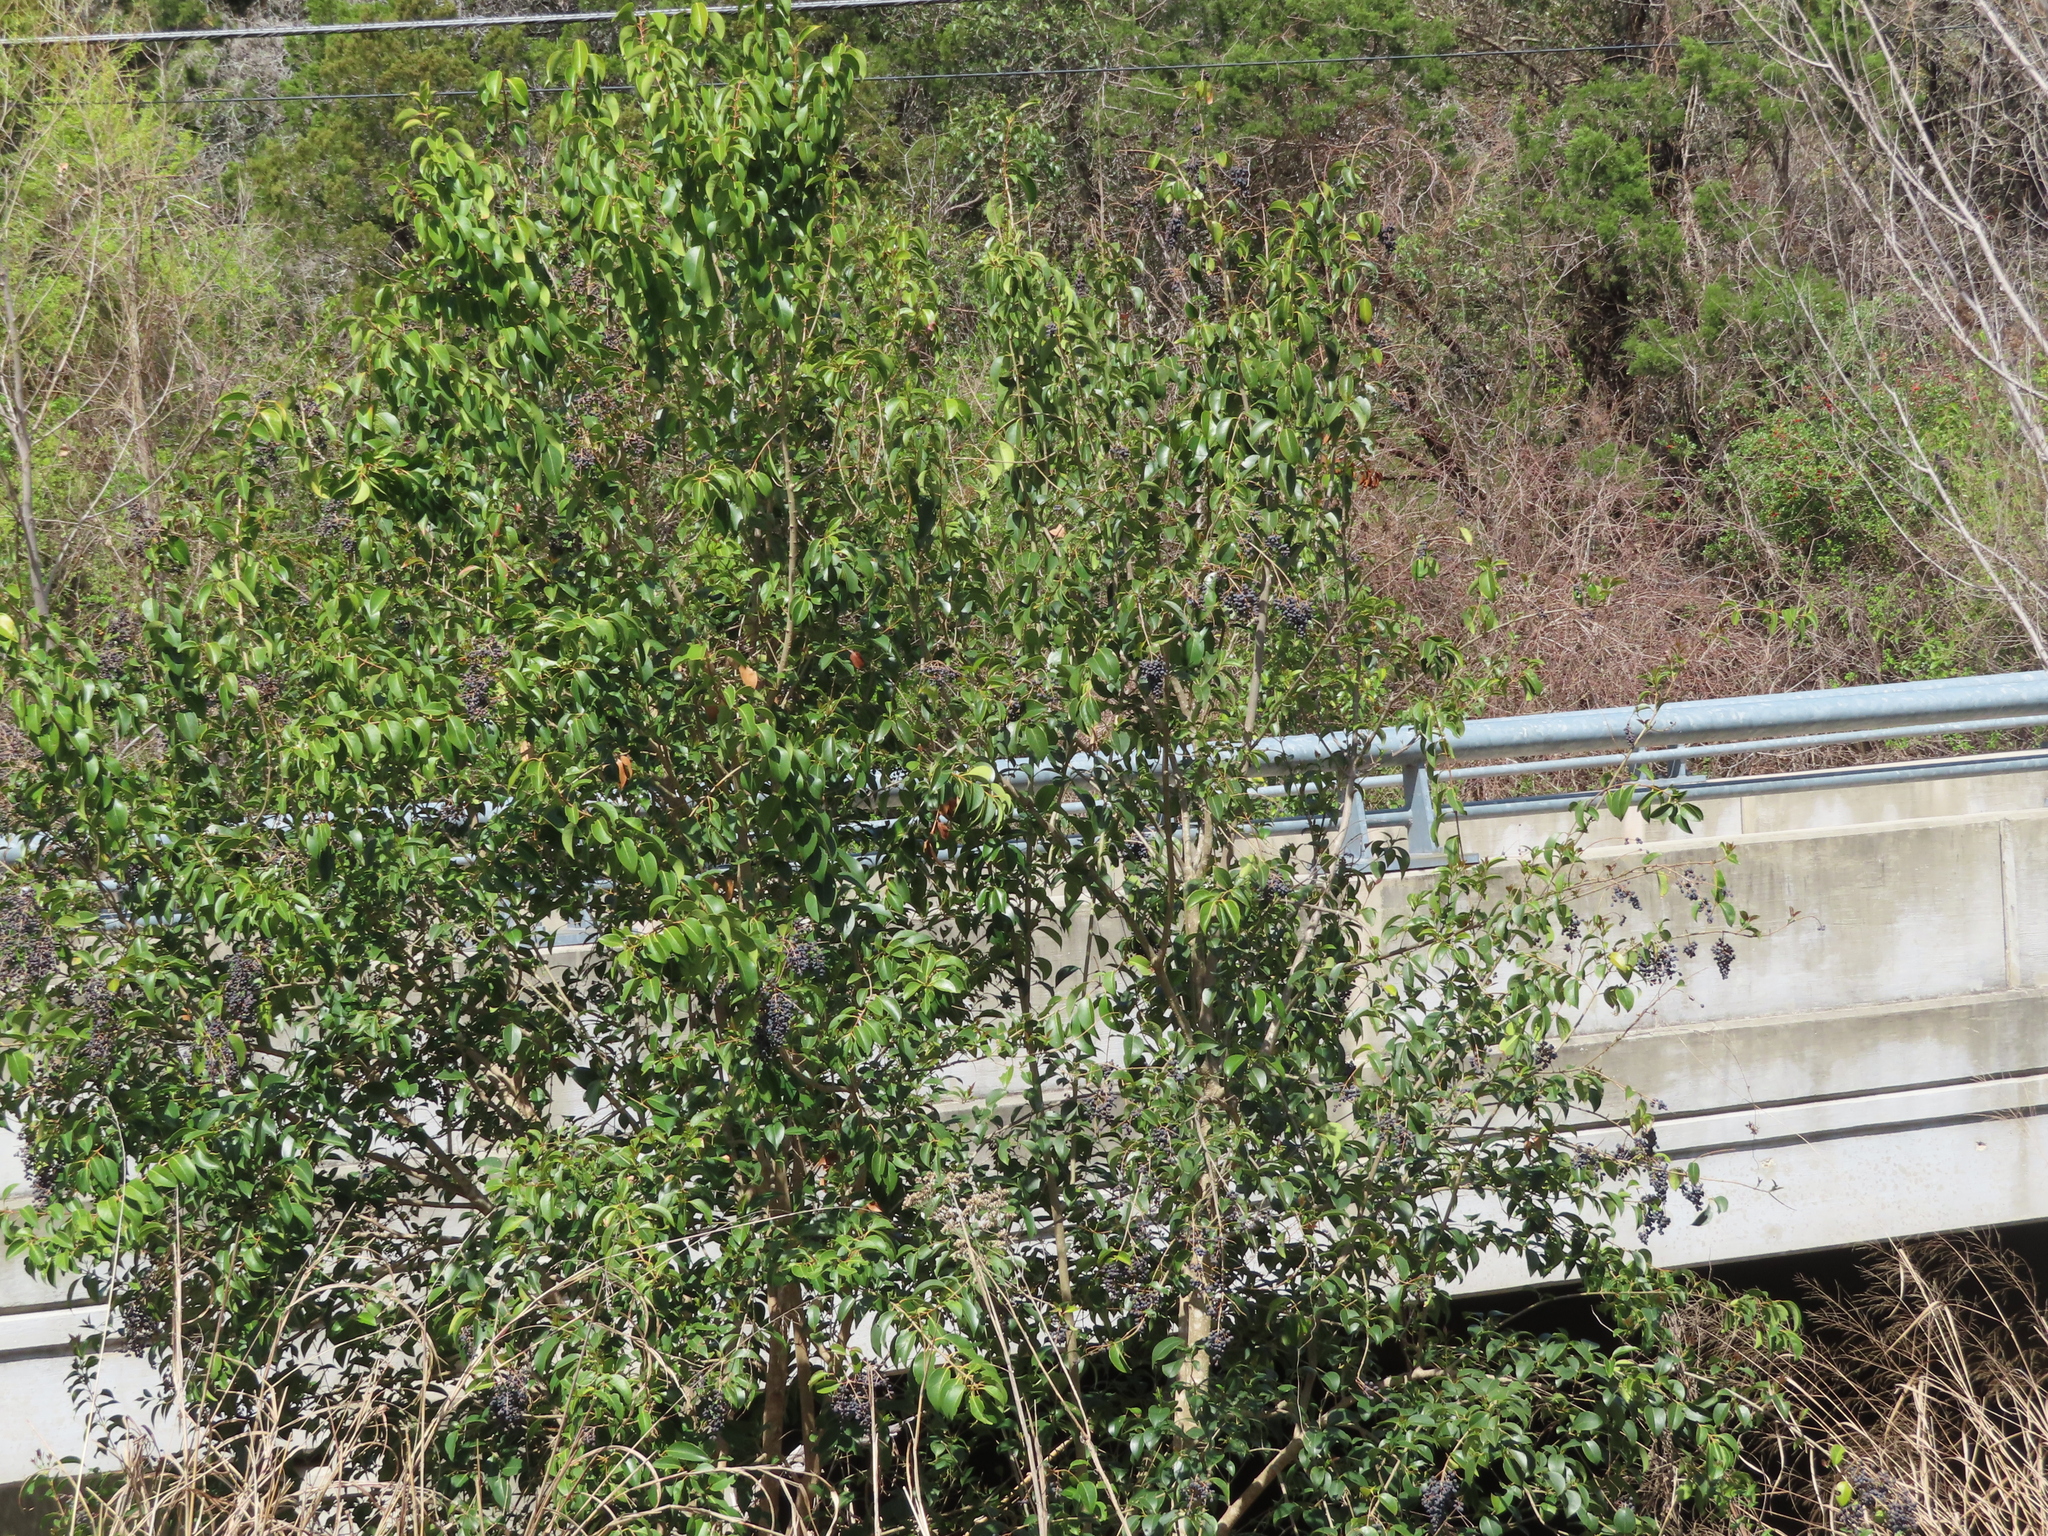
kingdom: Plantae
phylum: Tracheophyta
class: Magnoliopsida
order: Lamiales
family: Oleaceae
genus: Ligustrum
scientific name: Ligustrum lucidum
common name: Glossy privet
